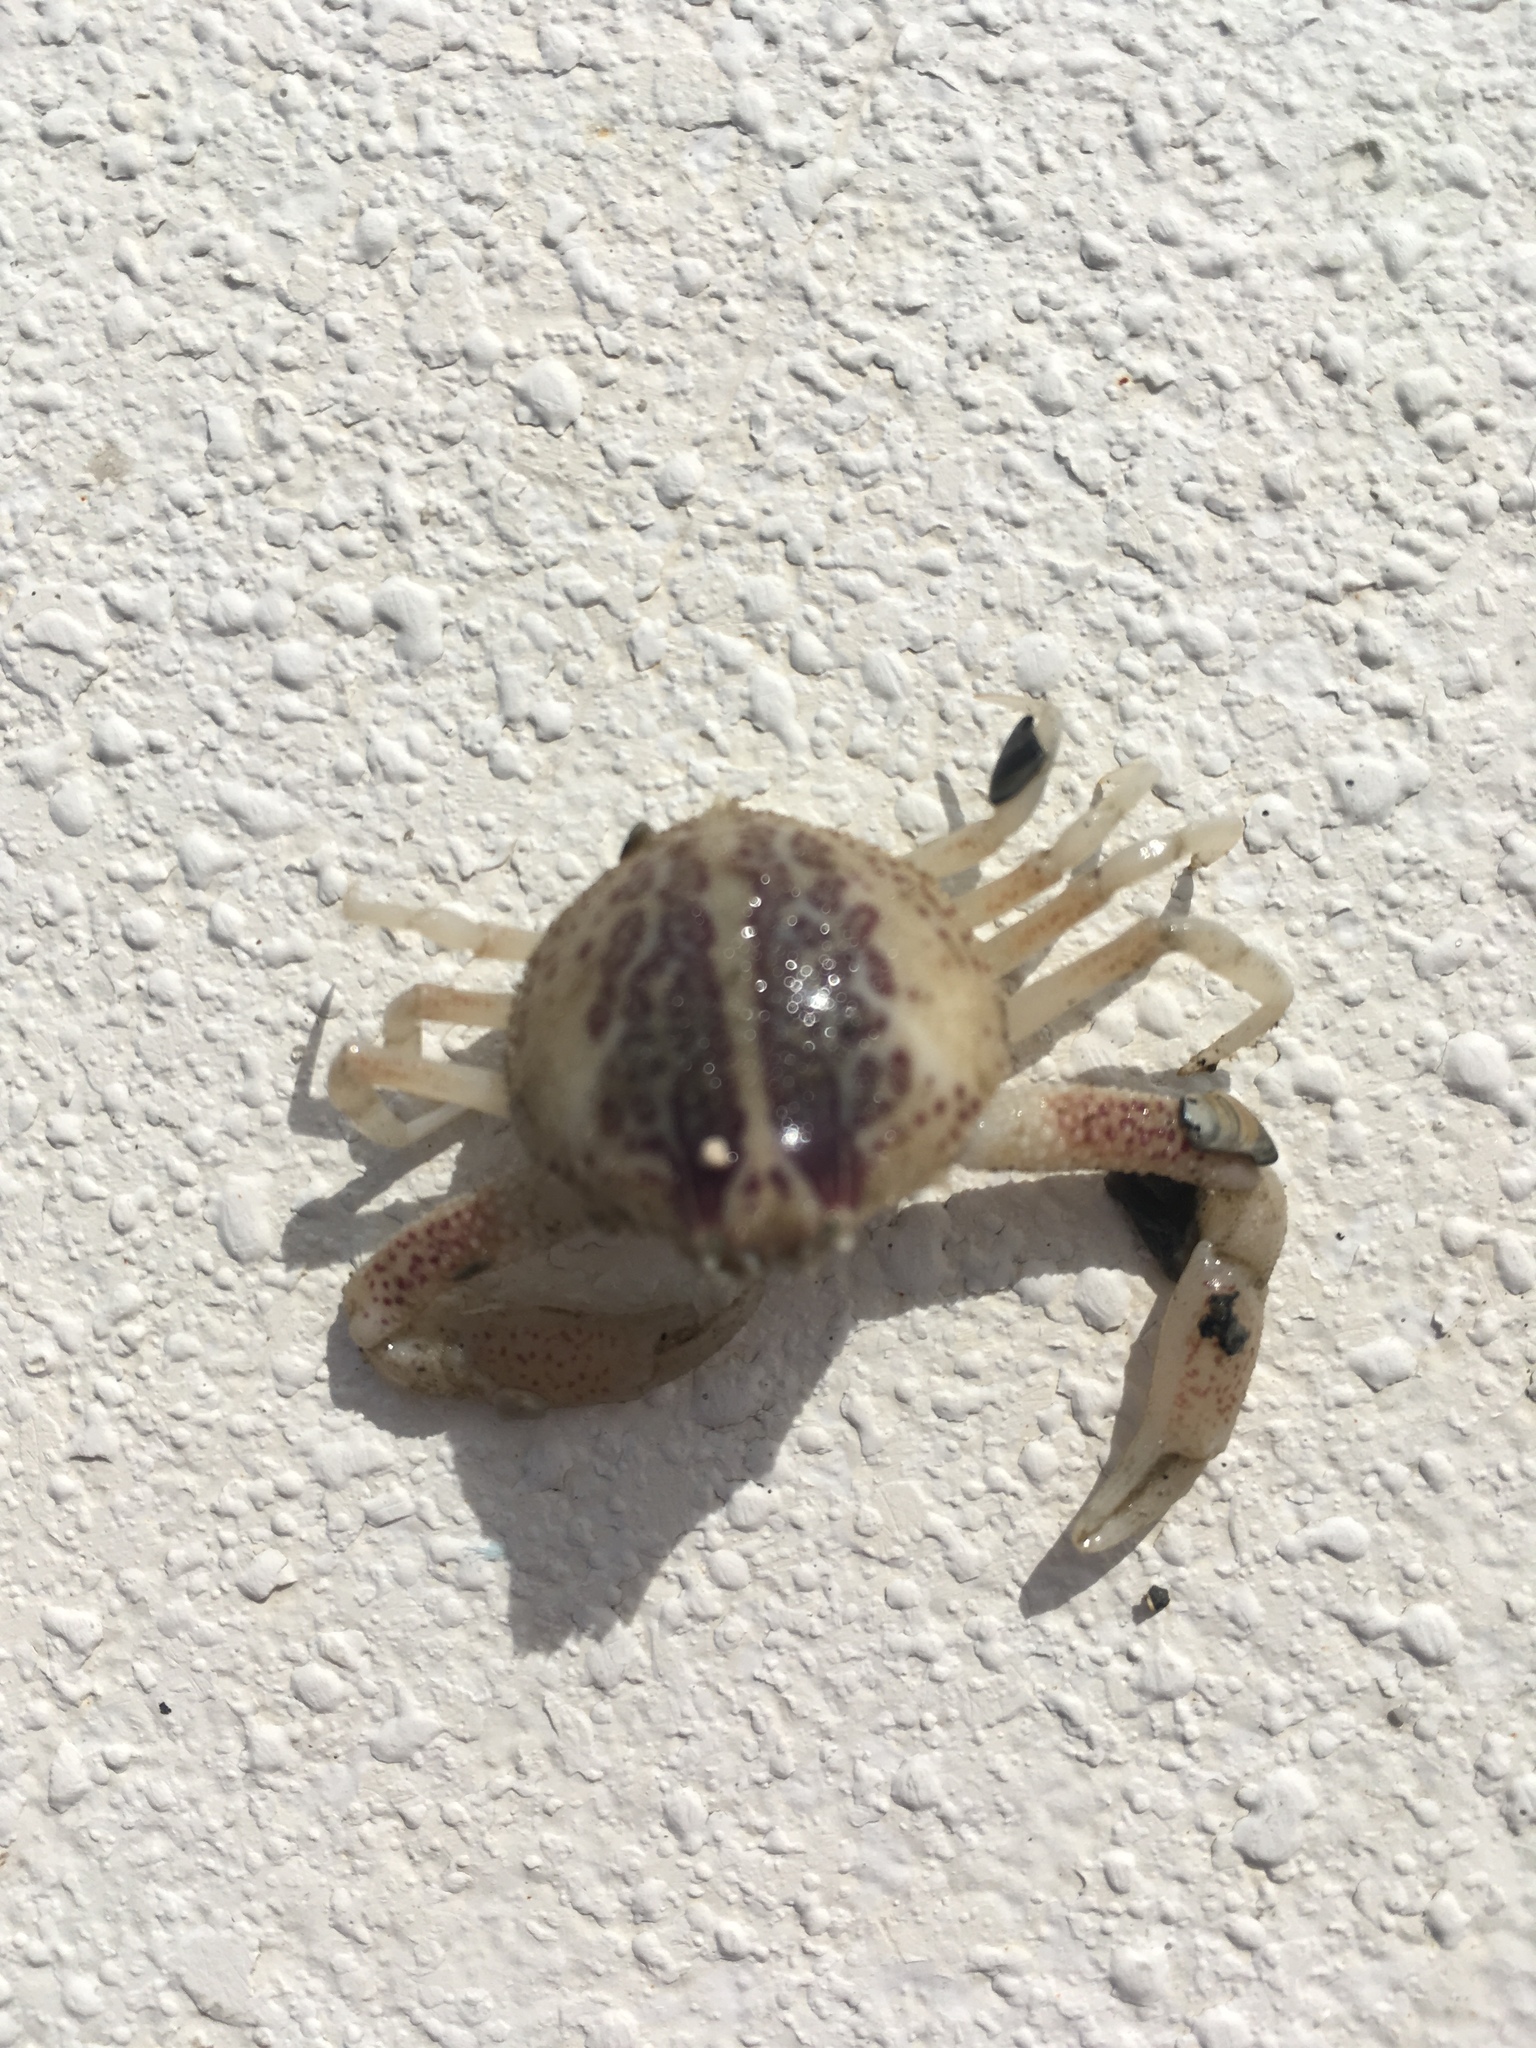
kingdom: Animalia
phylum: Arthropoda
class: Malacostraca
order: Decapoda
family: Leucosiidae
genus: Persephona
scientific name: Persephona aquilonaris
